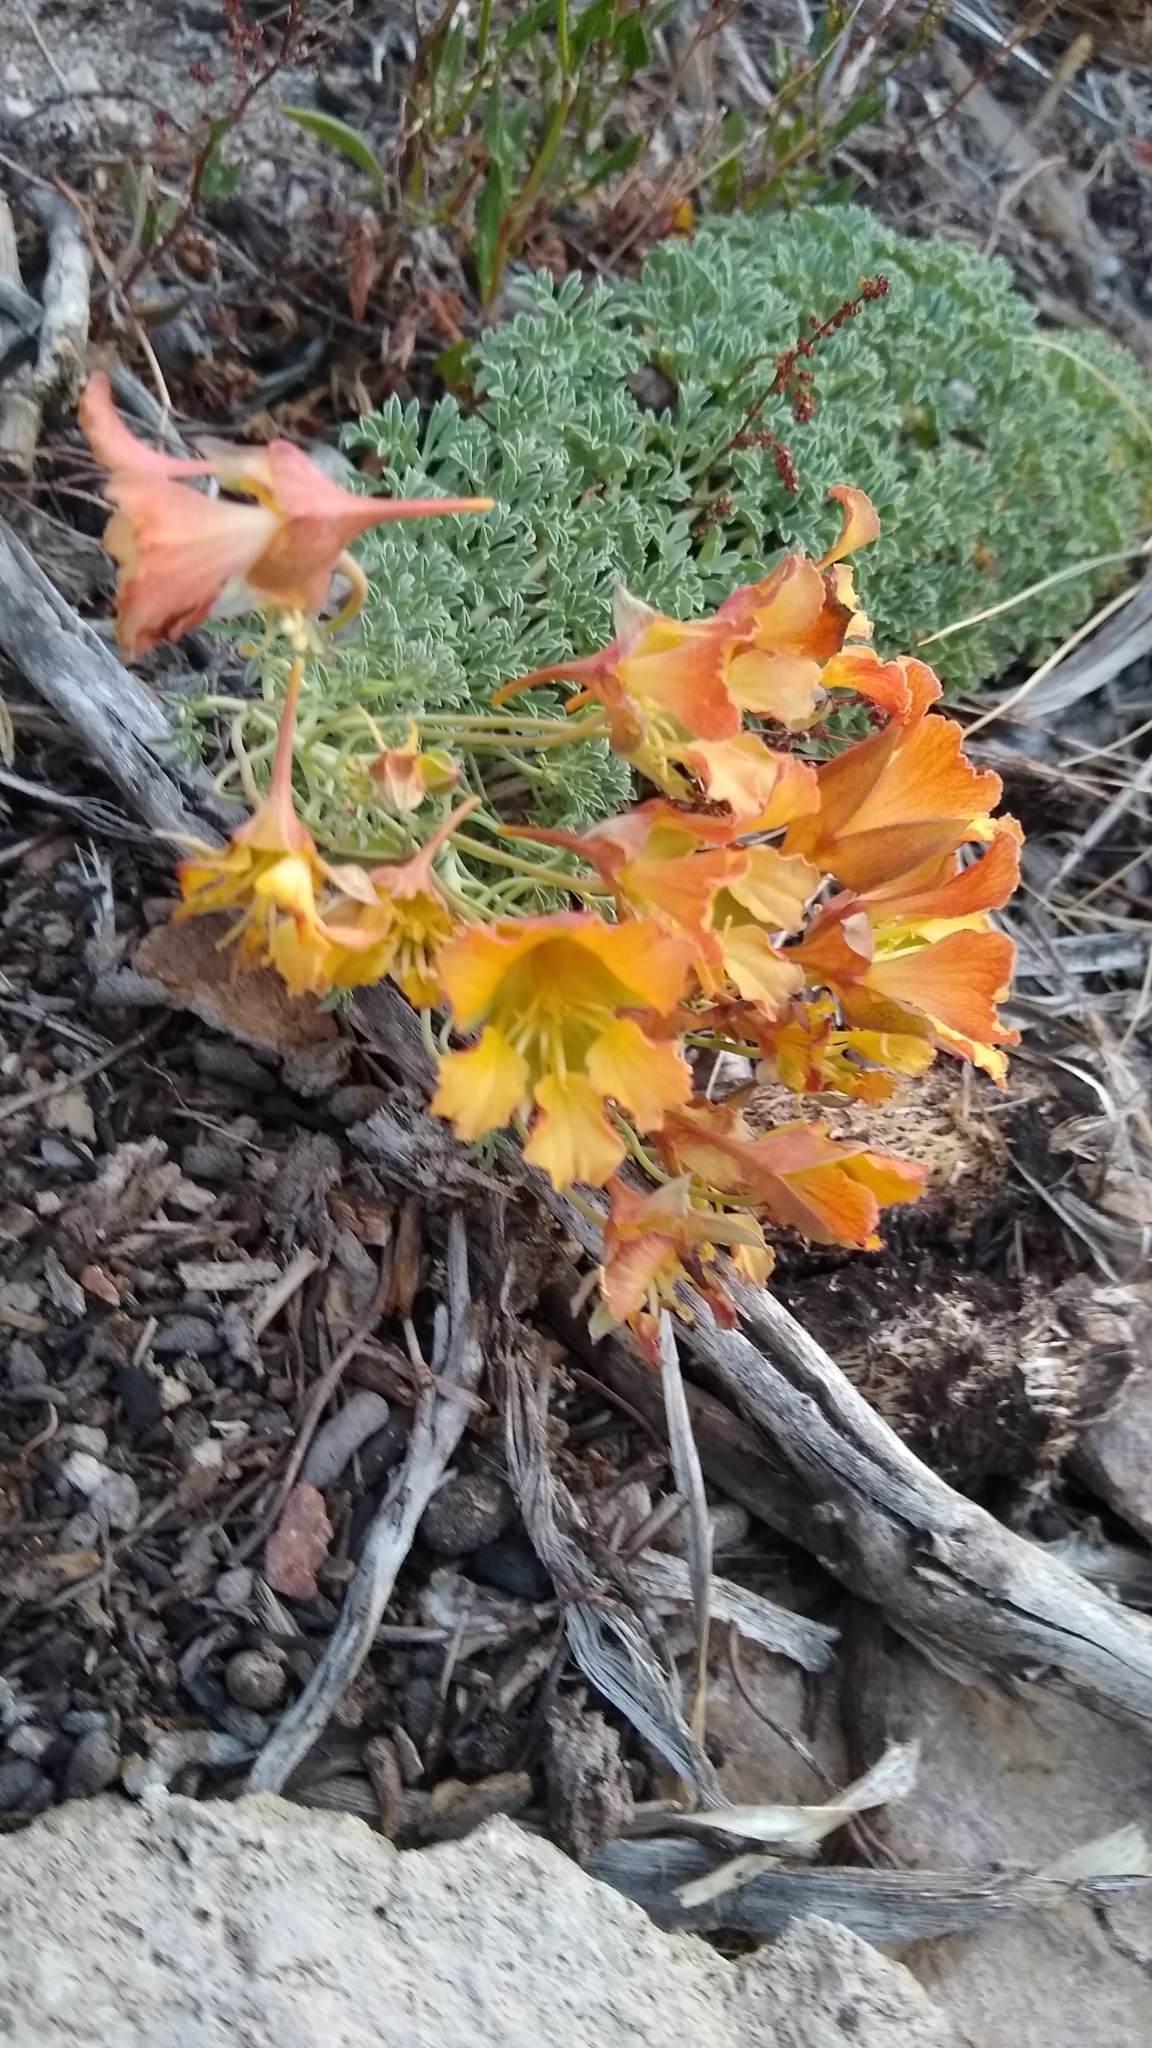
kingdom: Plantae
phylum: Tracheophyta
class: Magnoliopsida
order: Brassicales
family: Tropaeolaceae
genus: Tropaeolum
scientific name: Tropaeolum incisum
